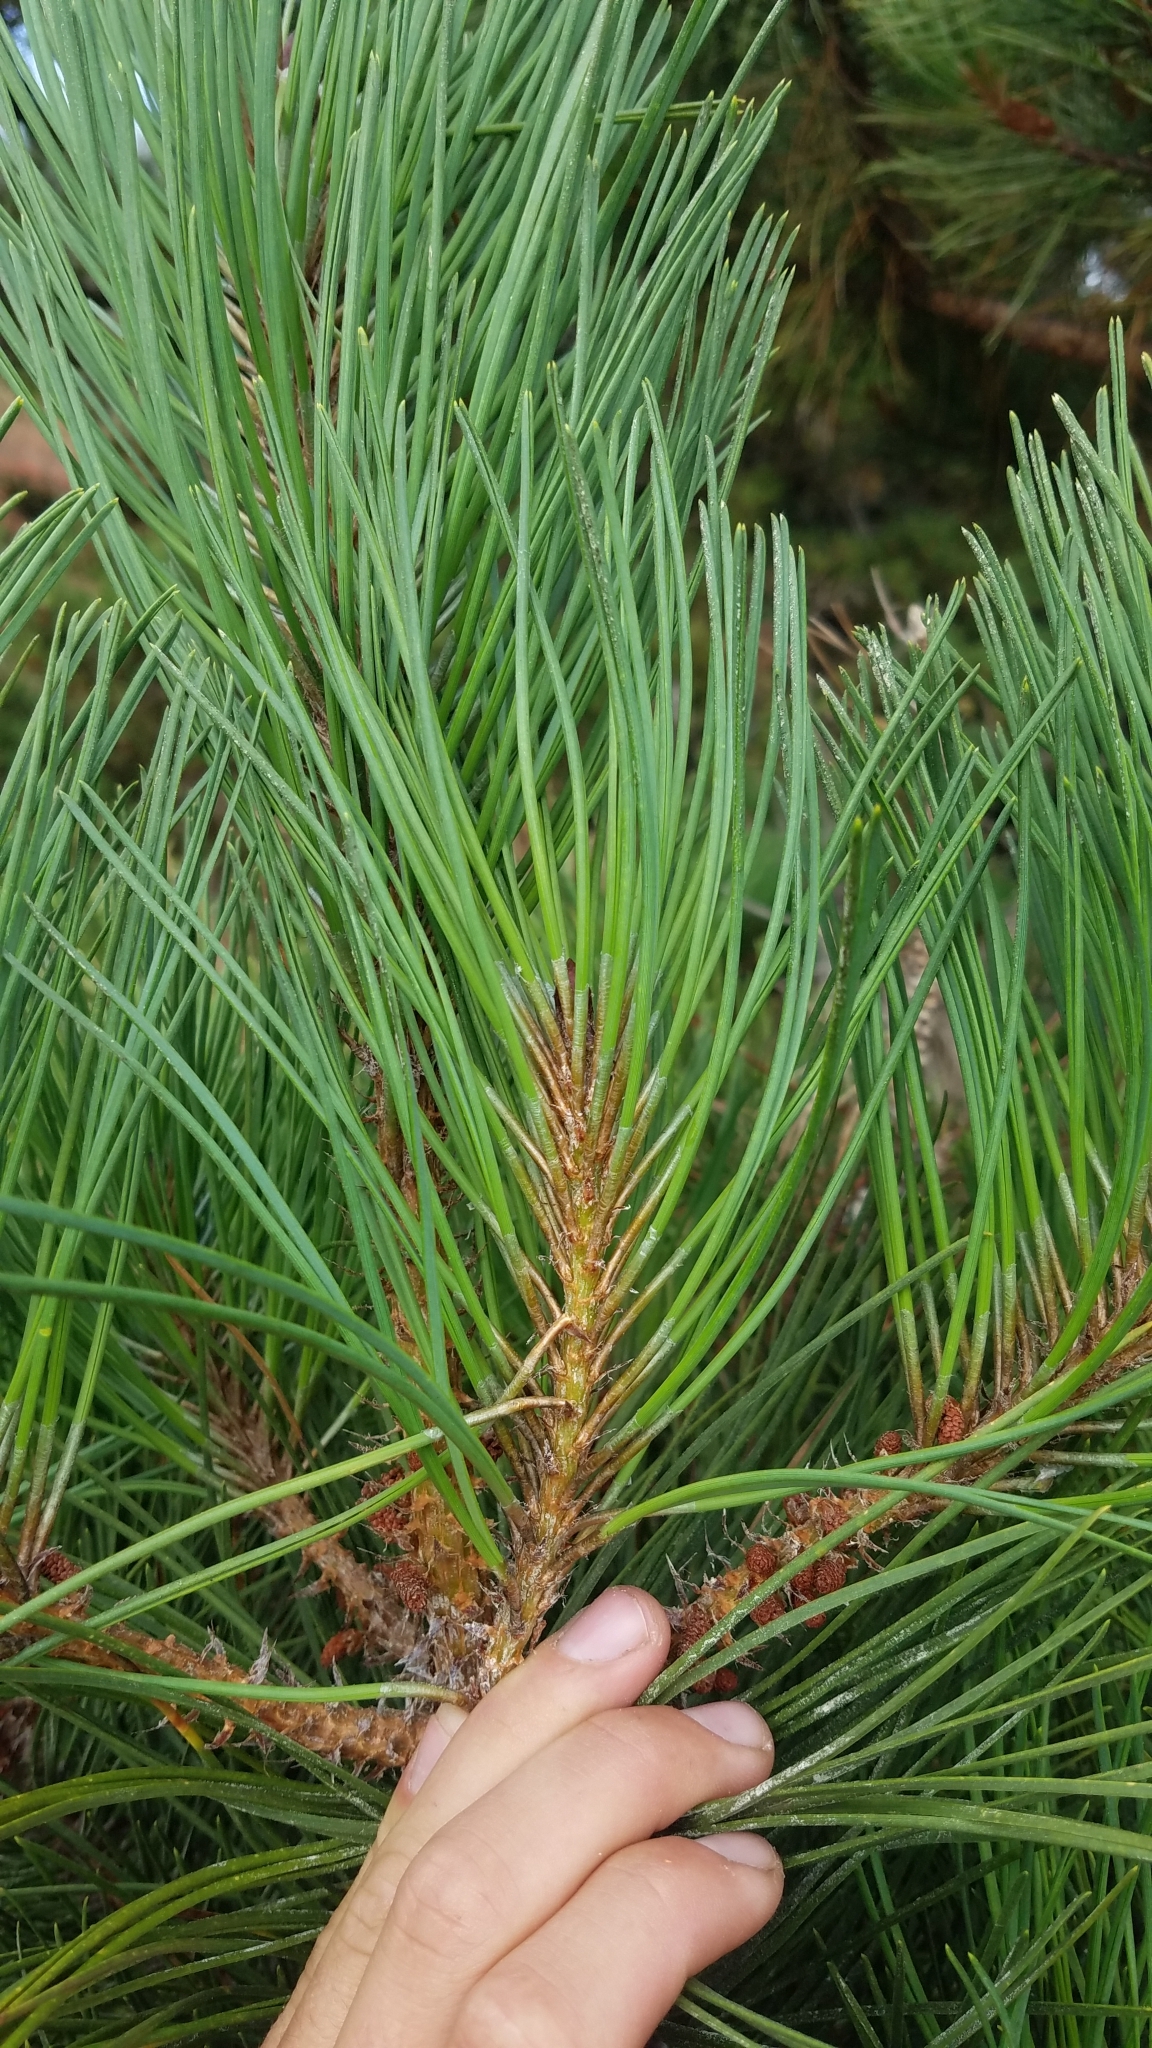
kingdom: Plantae
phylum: Tracheophyta
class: Pinopsida
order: Pinales
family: Pinaceae
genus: Pinus
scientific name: Pinus muricata
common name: Bishop pine
